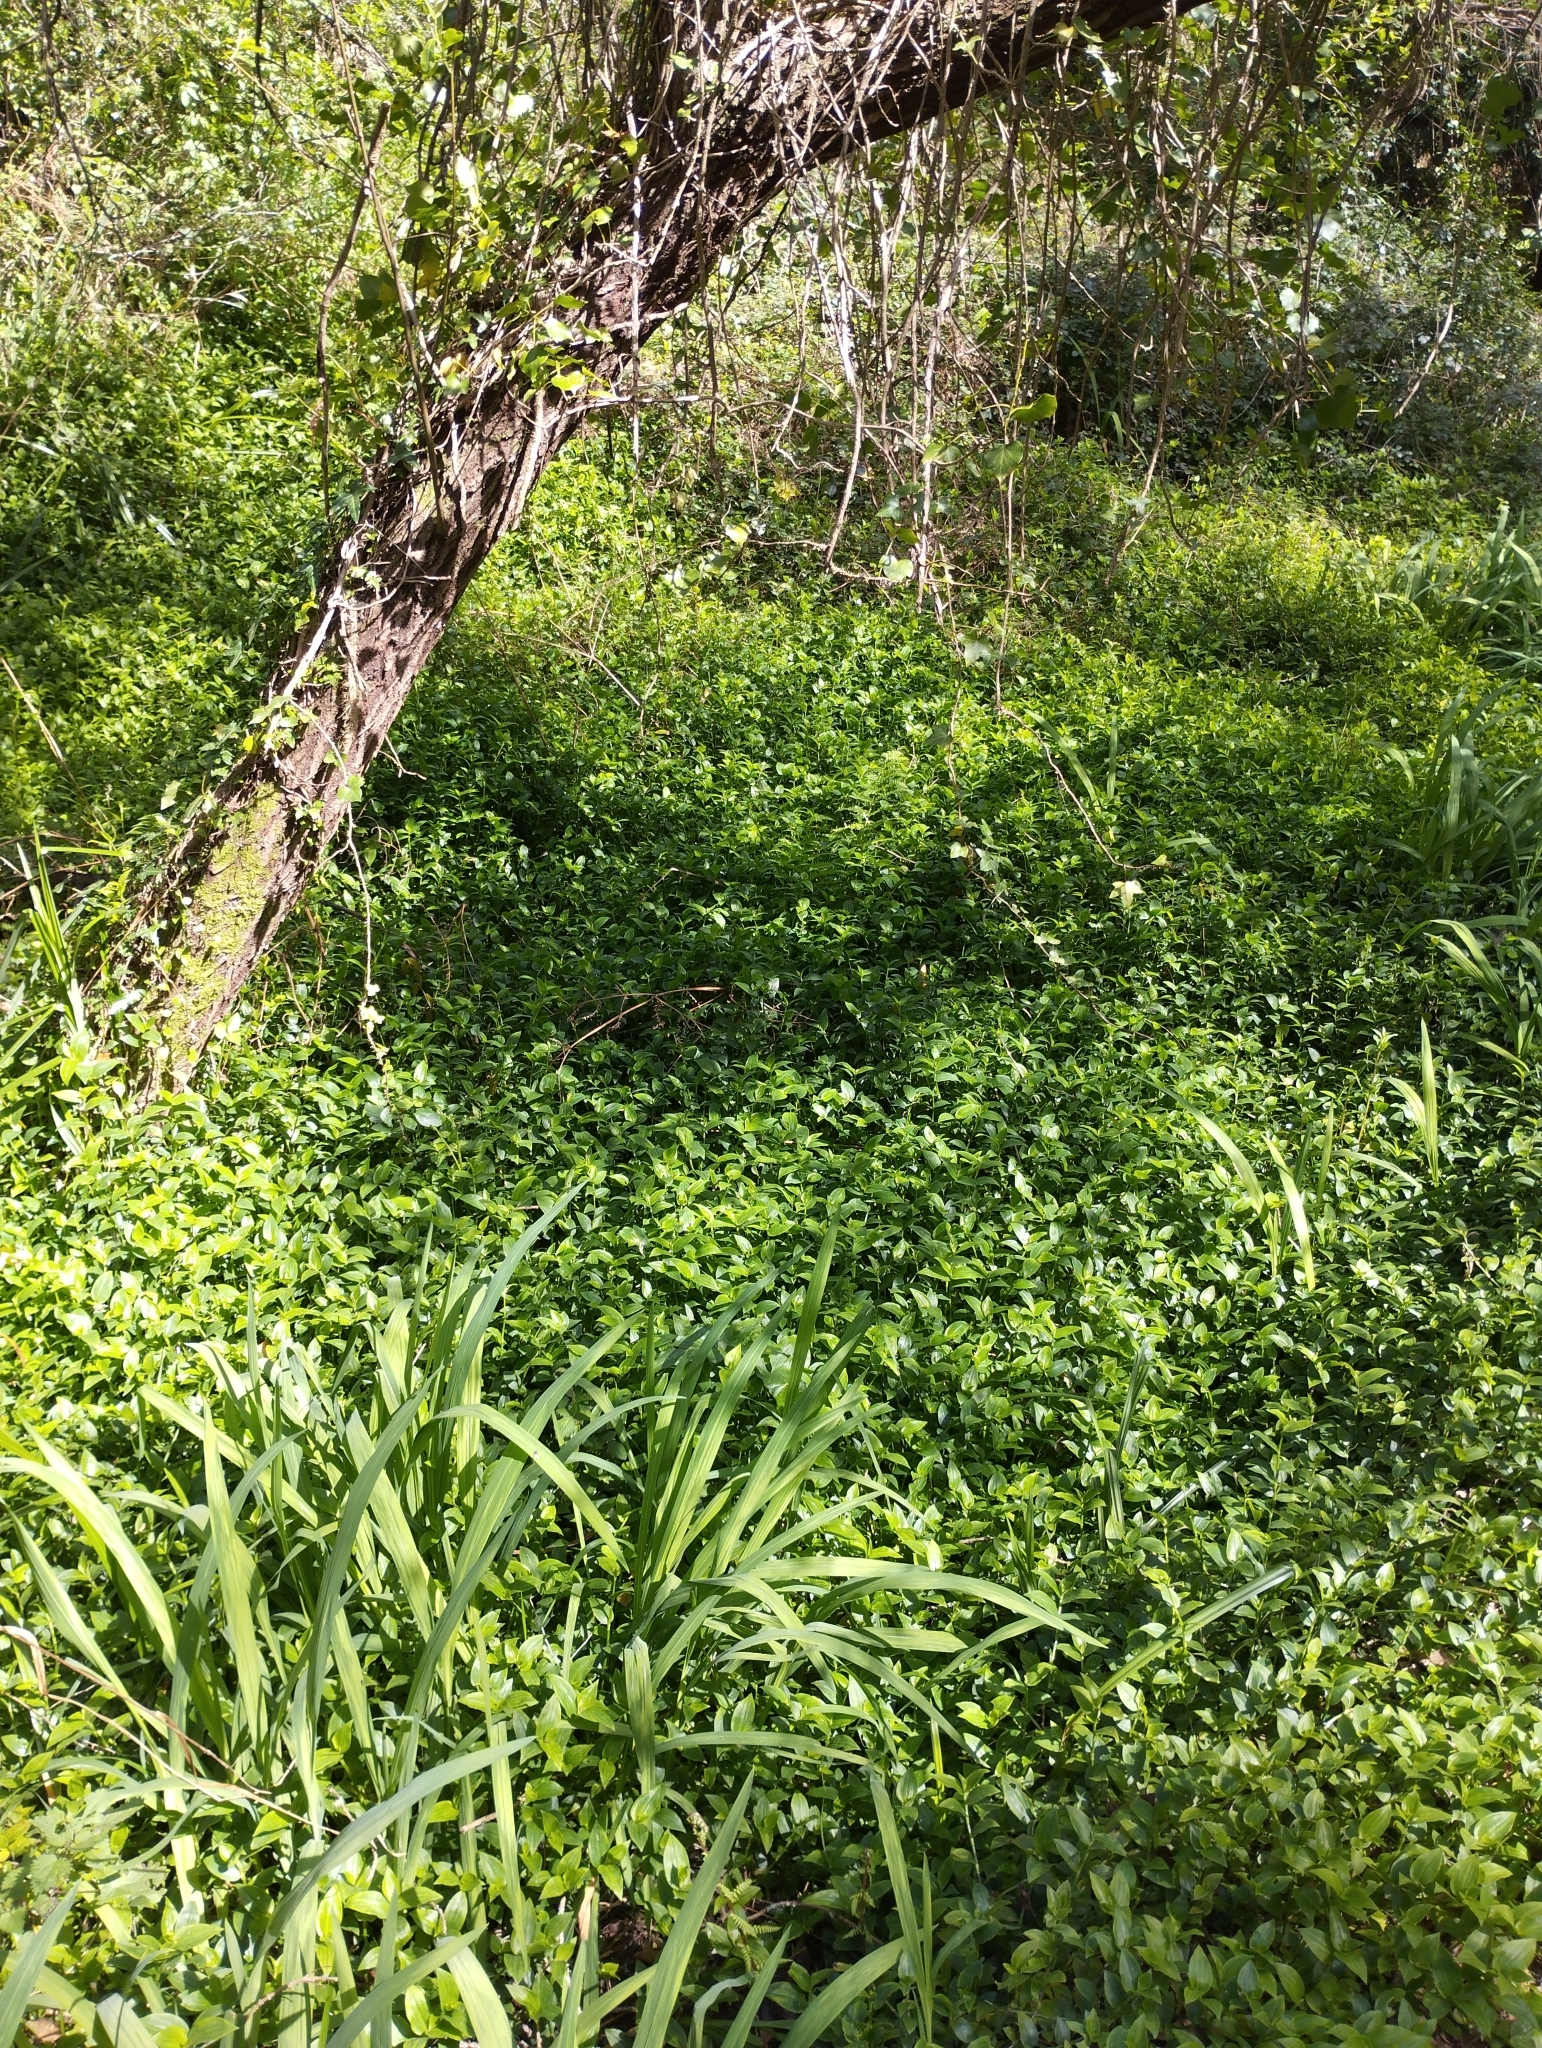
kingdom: Plantae
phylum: Tracheophyta
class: Liliopsida
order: Commelinales
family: Commelinaceae
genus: Tradescantia
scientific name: Tradescantia fluminensis
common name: Wandering-jew
